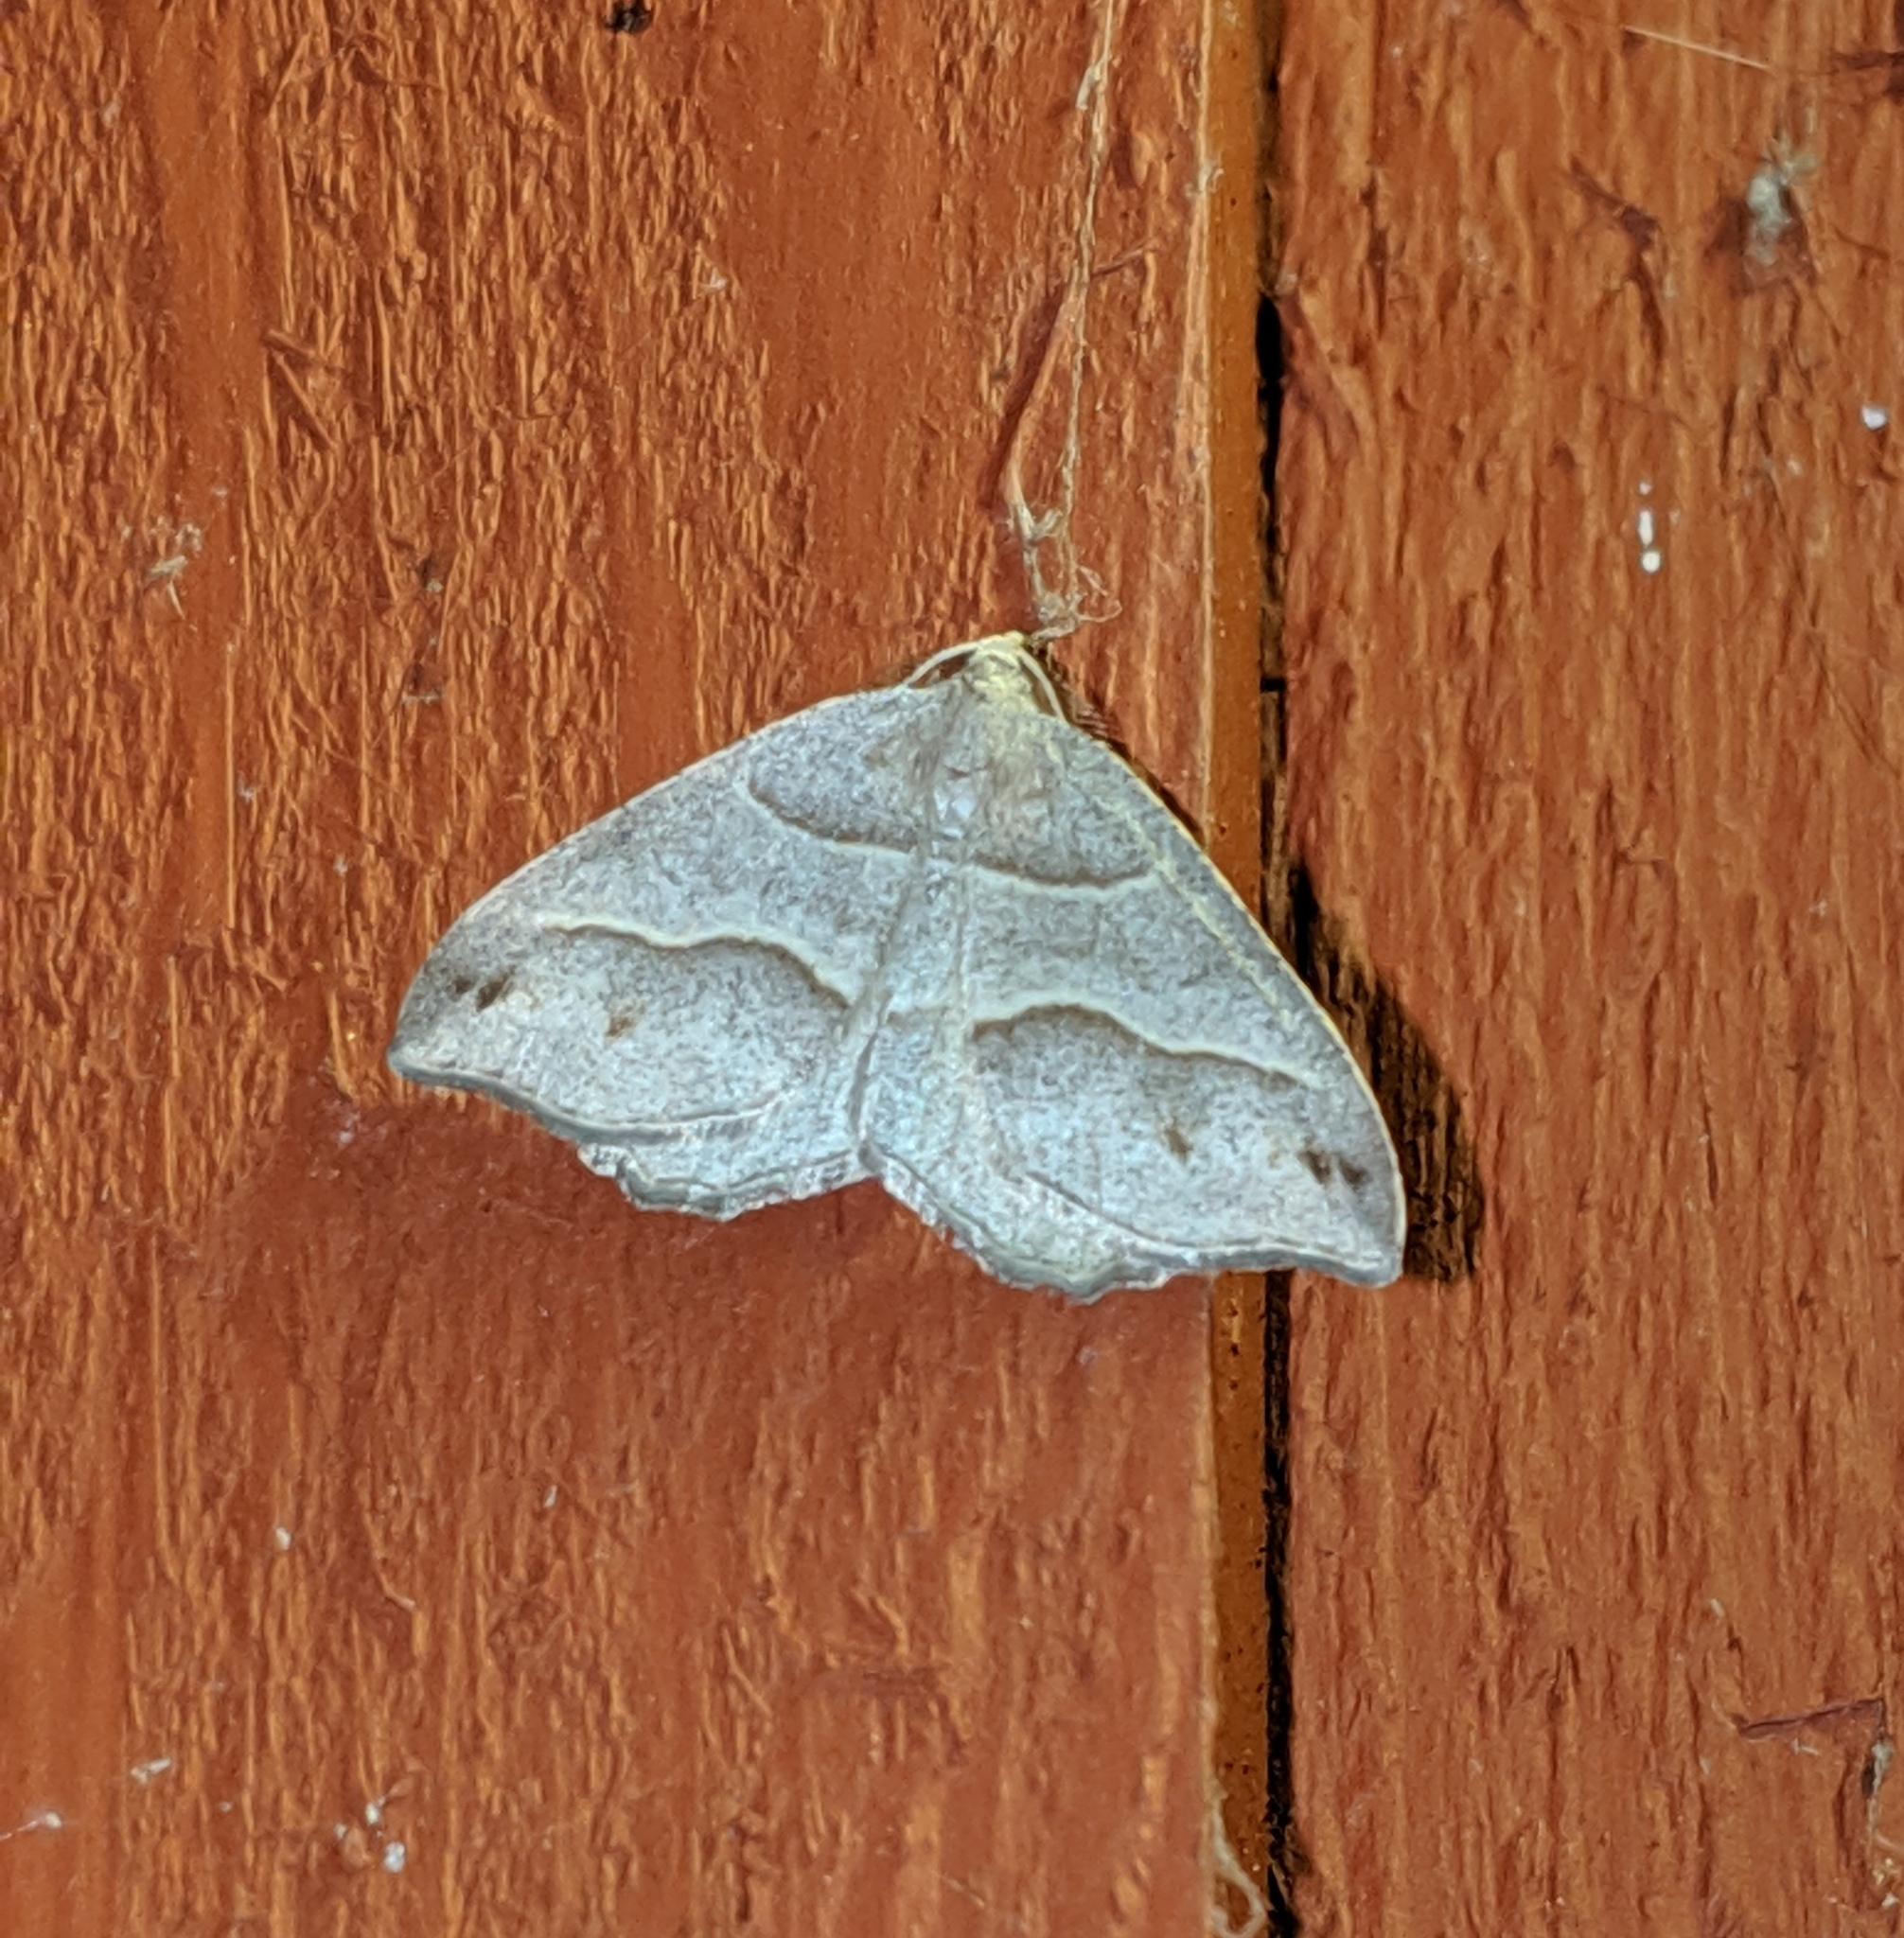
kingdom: Animalia
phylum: Arthropoda
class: Insecta
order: Lepidoptera
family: Geometridae
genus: Macaria
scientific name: Macaria lorquinaria
